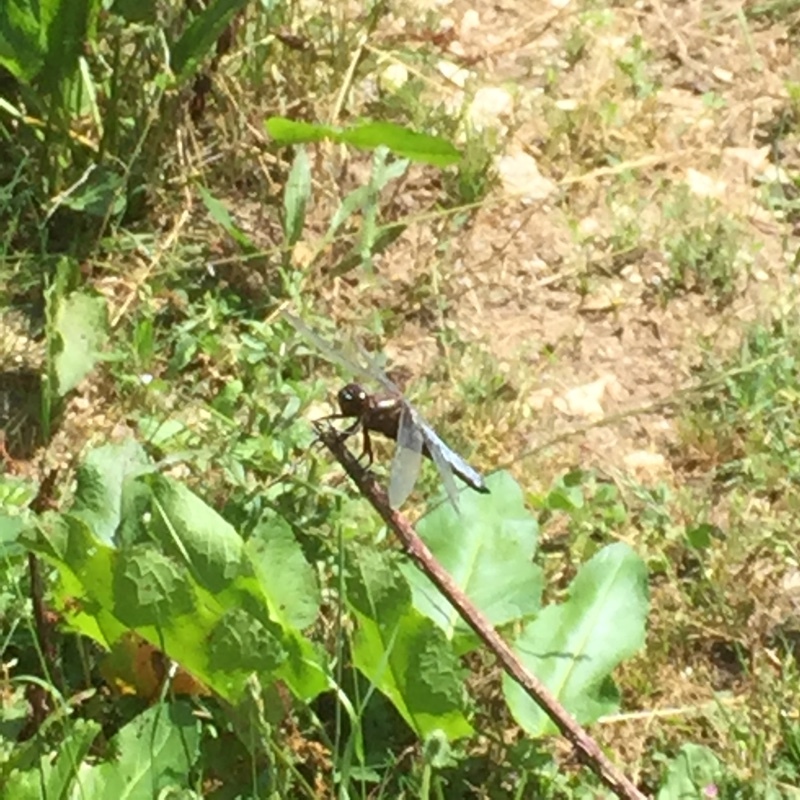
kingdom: Animalia
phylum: Arthropoda
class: Insecta
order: Odonata
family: Libellulidae
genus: Libellula
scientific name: Libellula depressa
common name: Broad-bodied chaser
